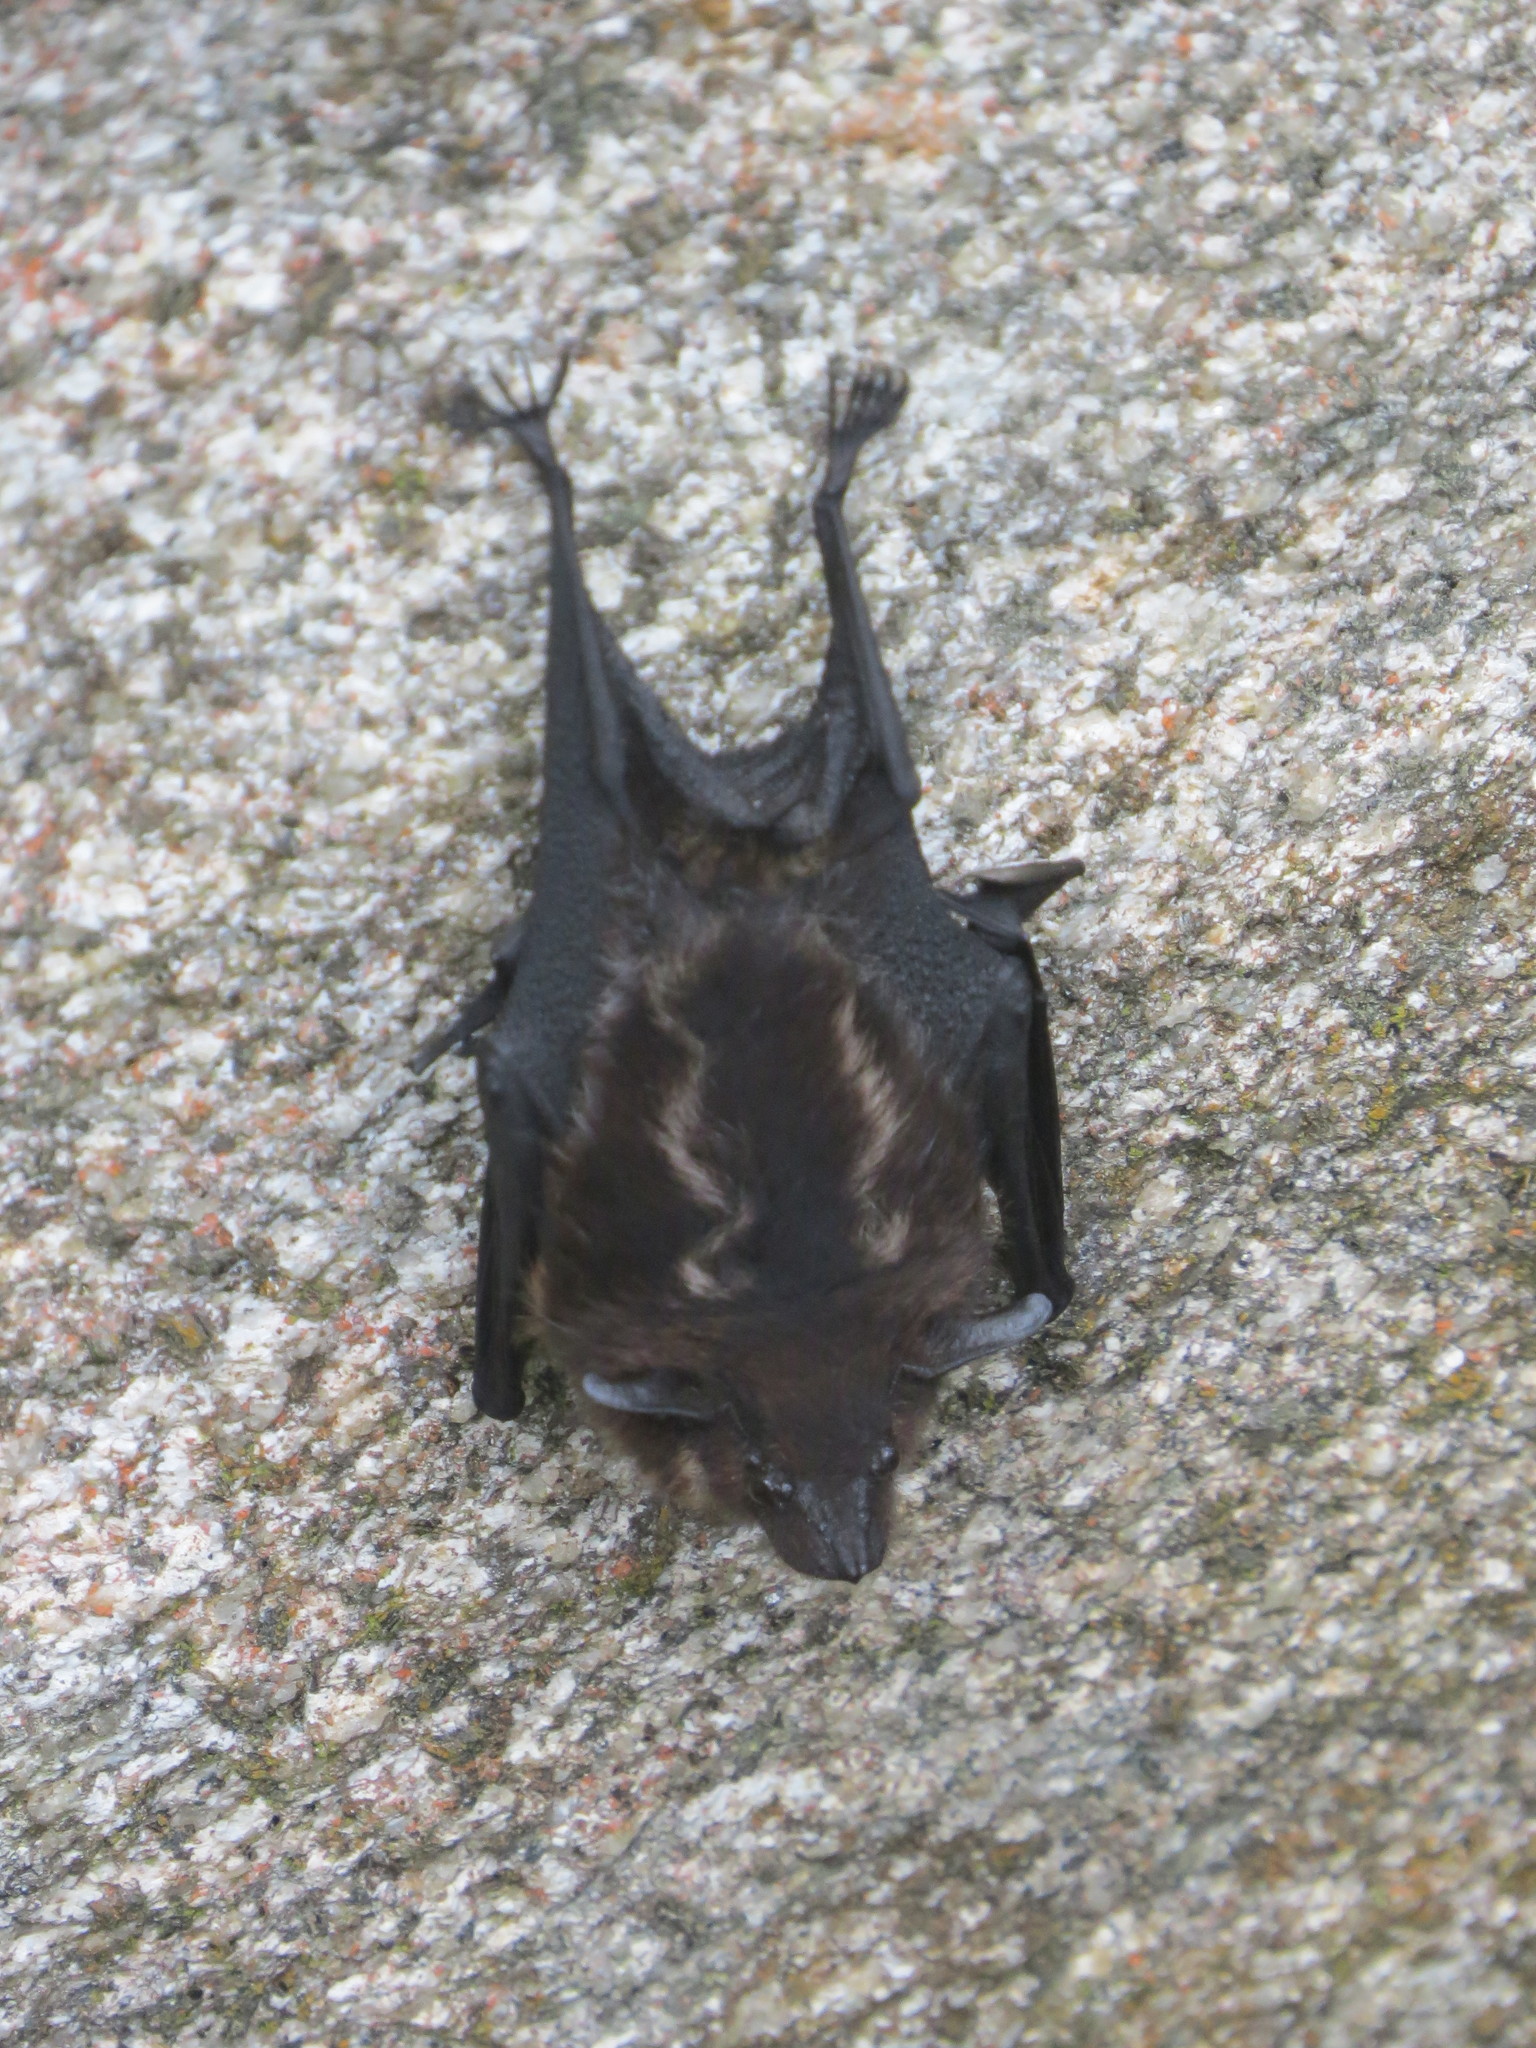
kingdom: Animalia
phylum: Chordata
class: Mammalia
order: Chiroptera
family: Emballonuridae
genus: Saccopteryx
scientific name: Saccopteryx bilineata
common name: Greater sac-winged bat
